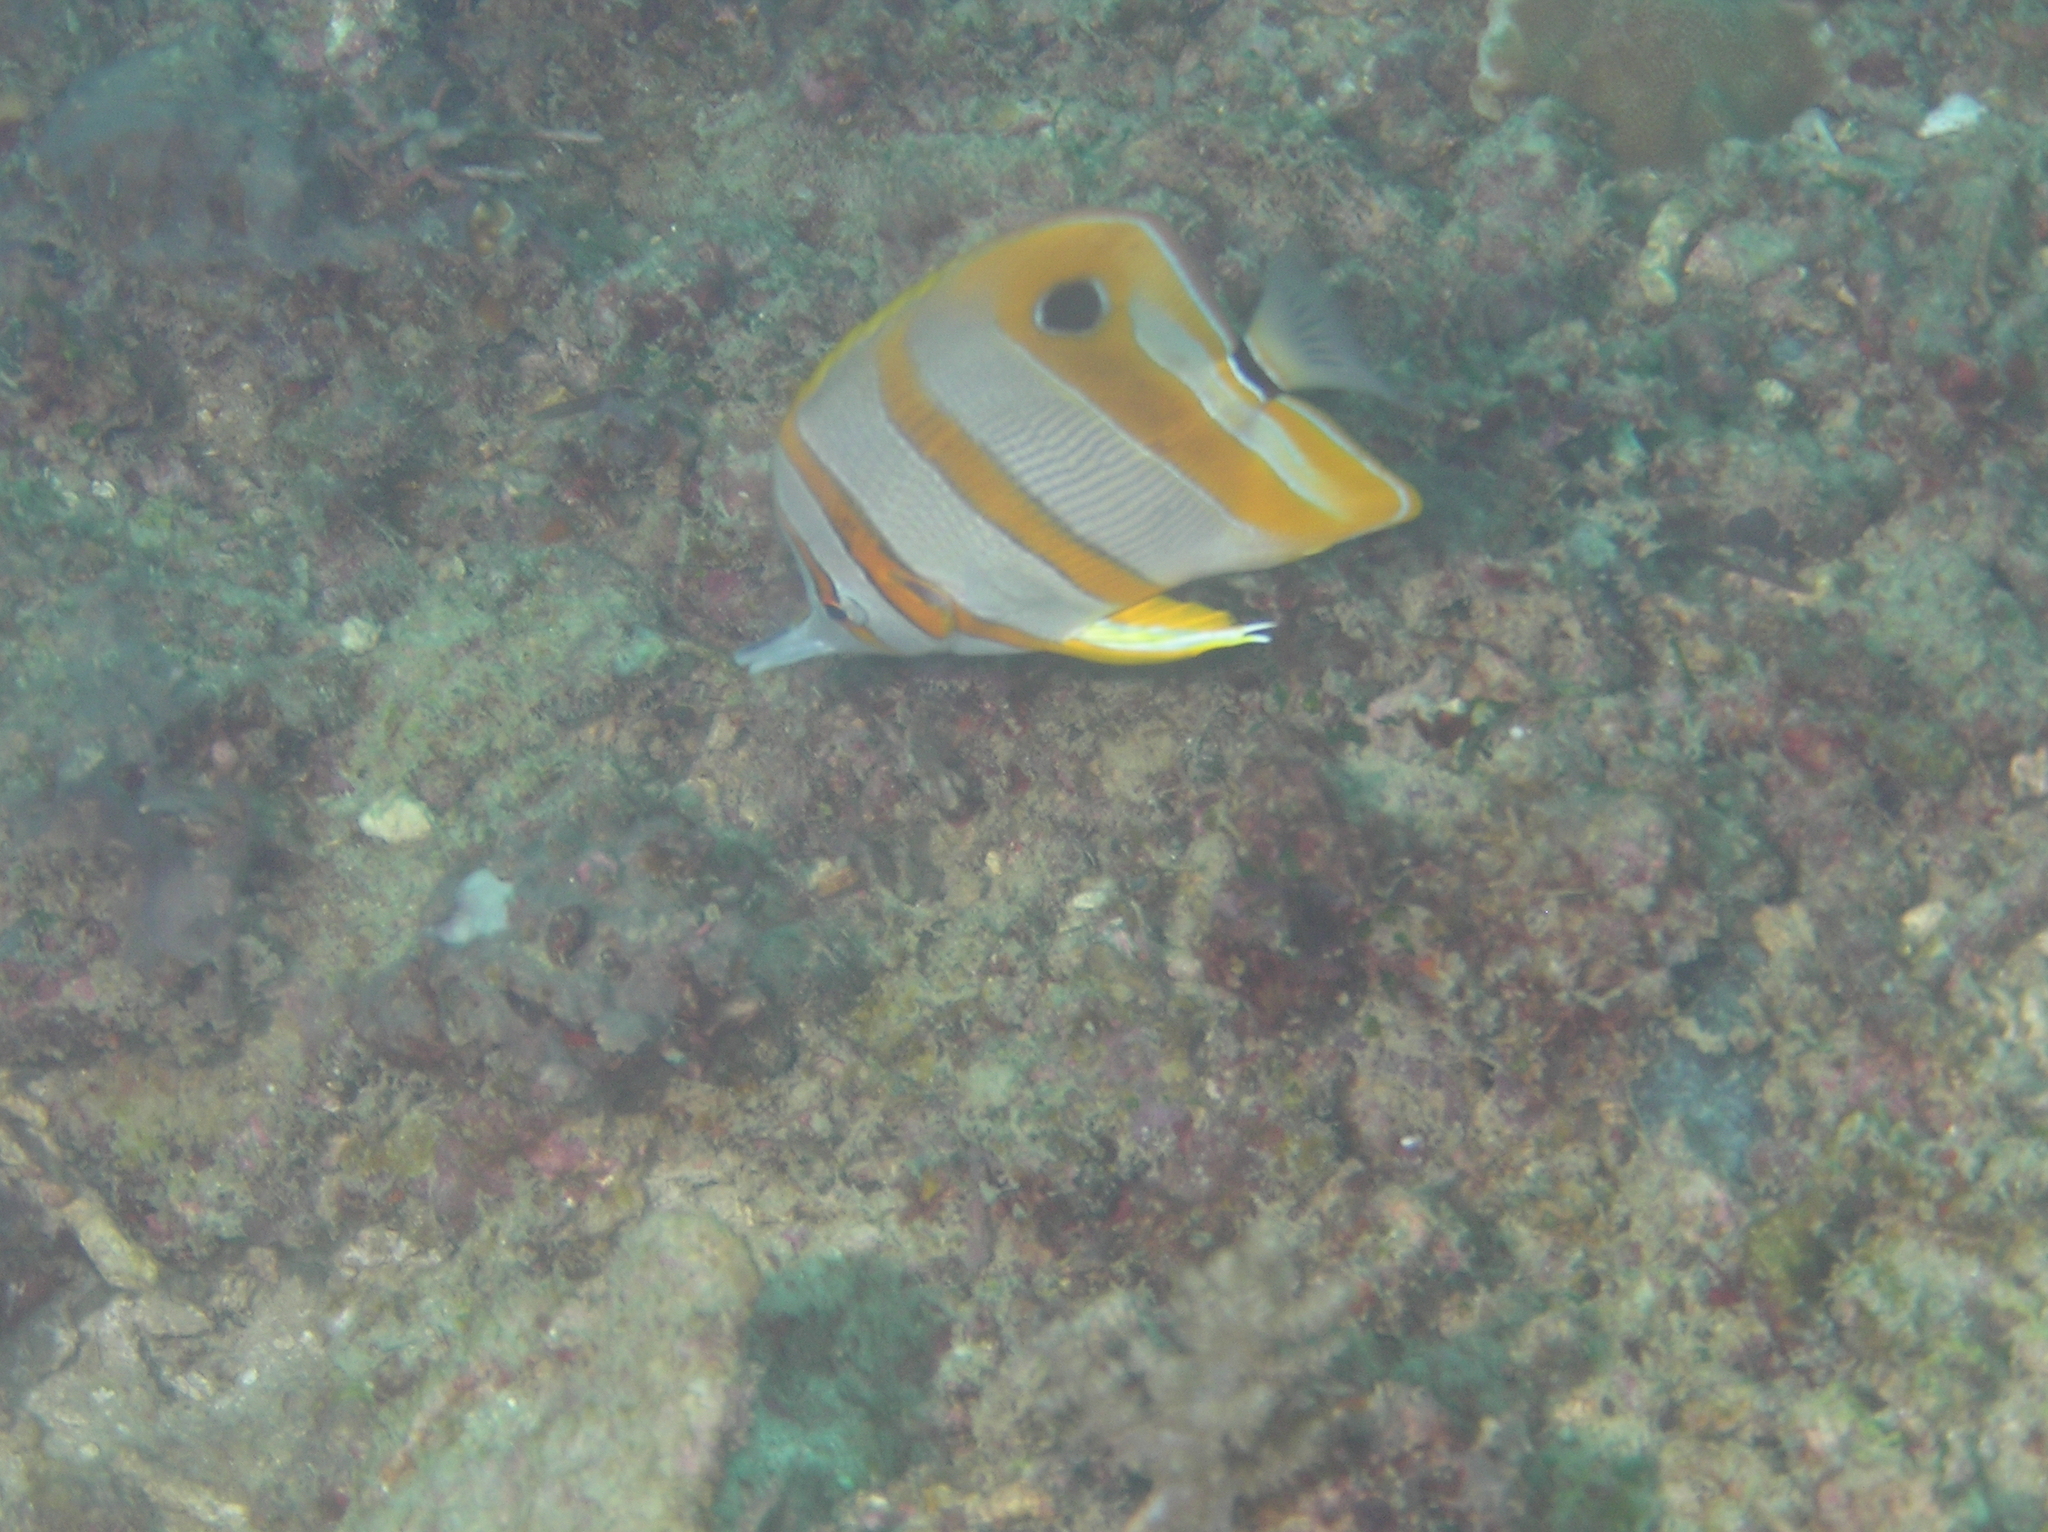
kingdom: Animalia
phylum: Chordata
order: Perciformes
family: Chaetodontidae
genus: Chelmon
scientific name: Chelmon rostratus
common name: Beaked butterflyfish
